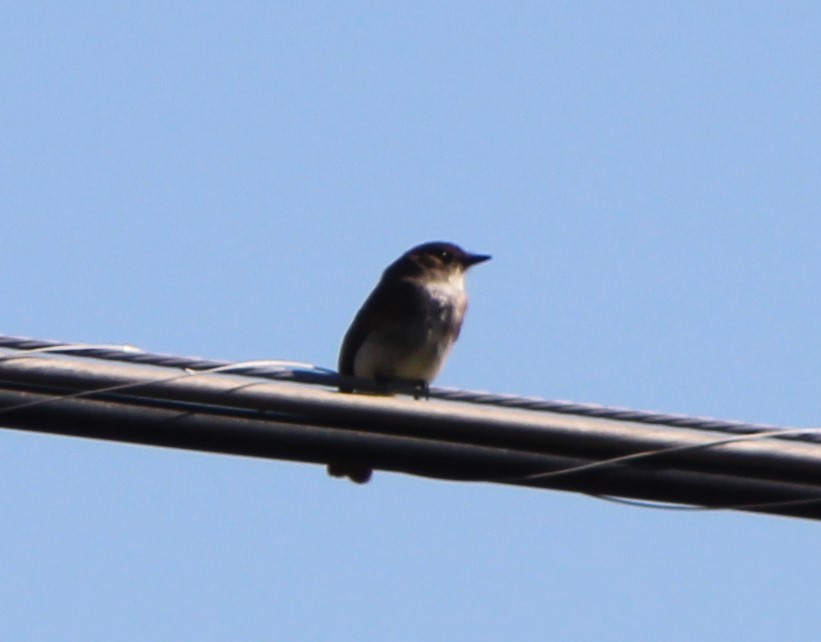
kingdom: Animalia
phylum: Chordata
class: Aves
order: Passeriformes
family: Tyrannidae
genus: Sayornis
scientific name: Sayornis phoebe
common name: Eastern phoebe
